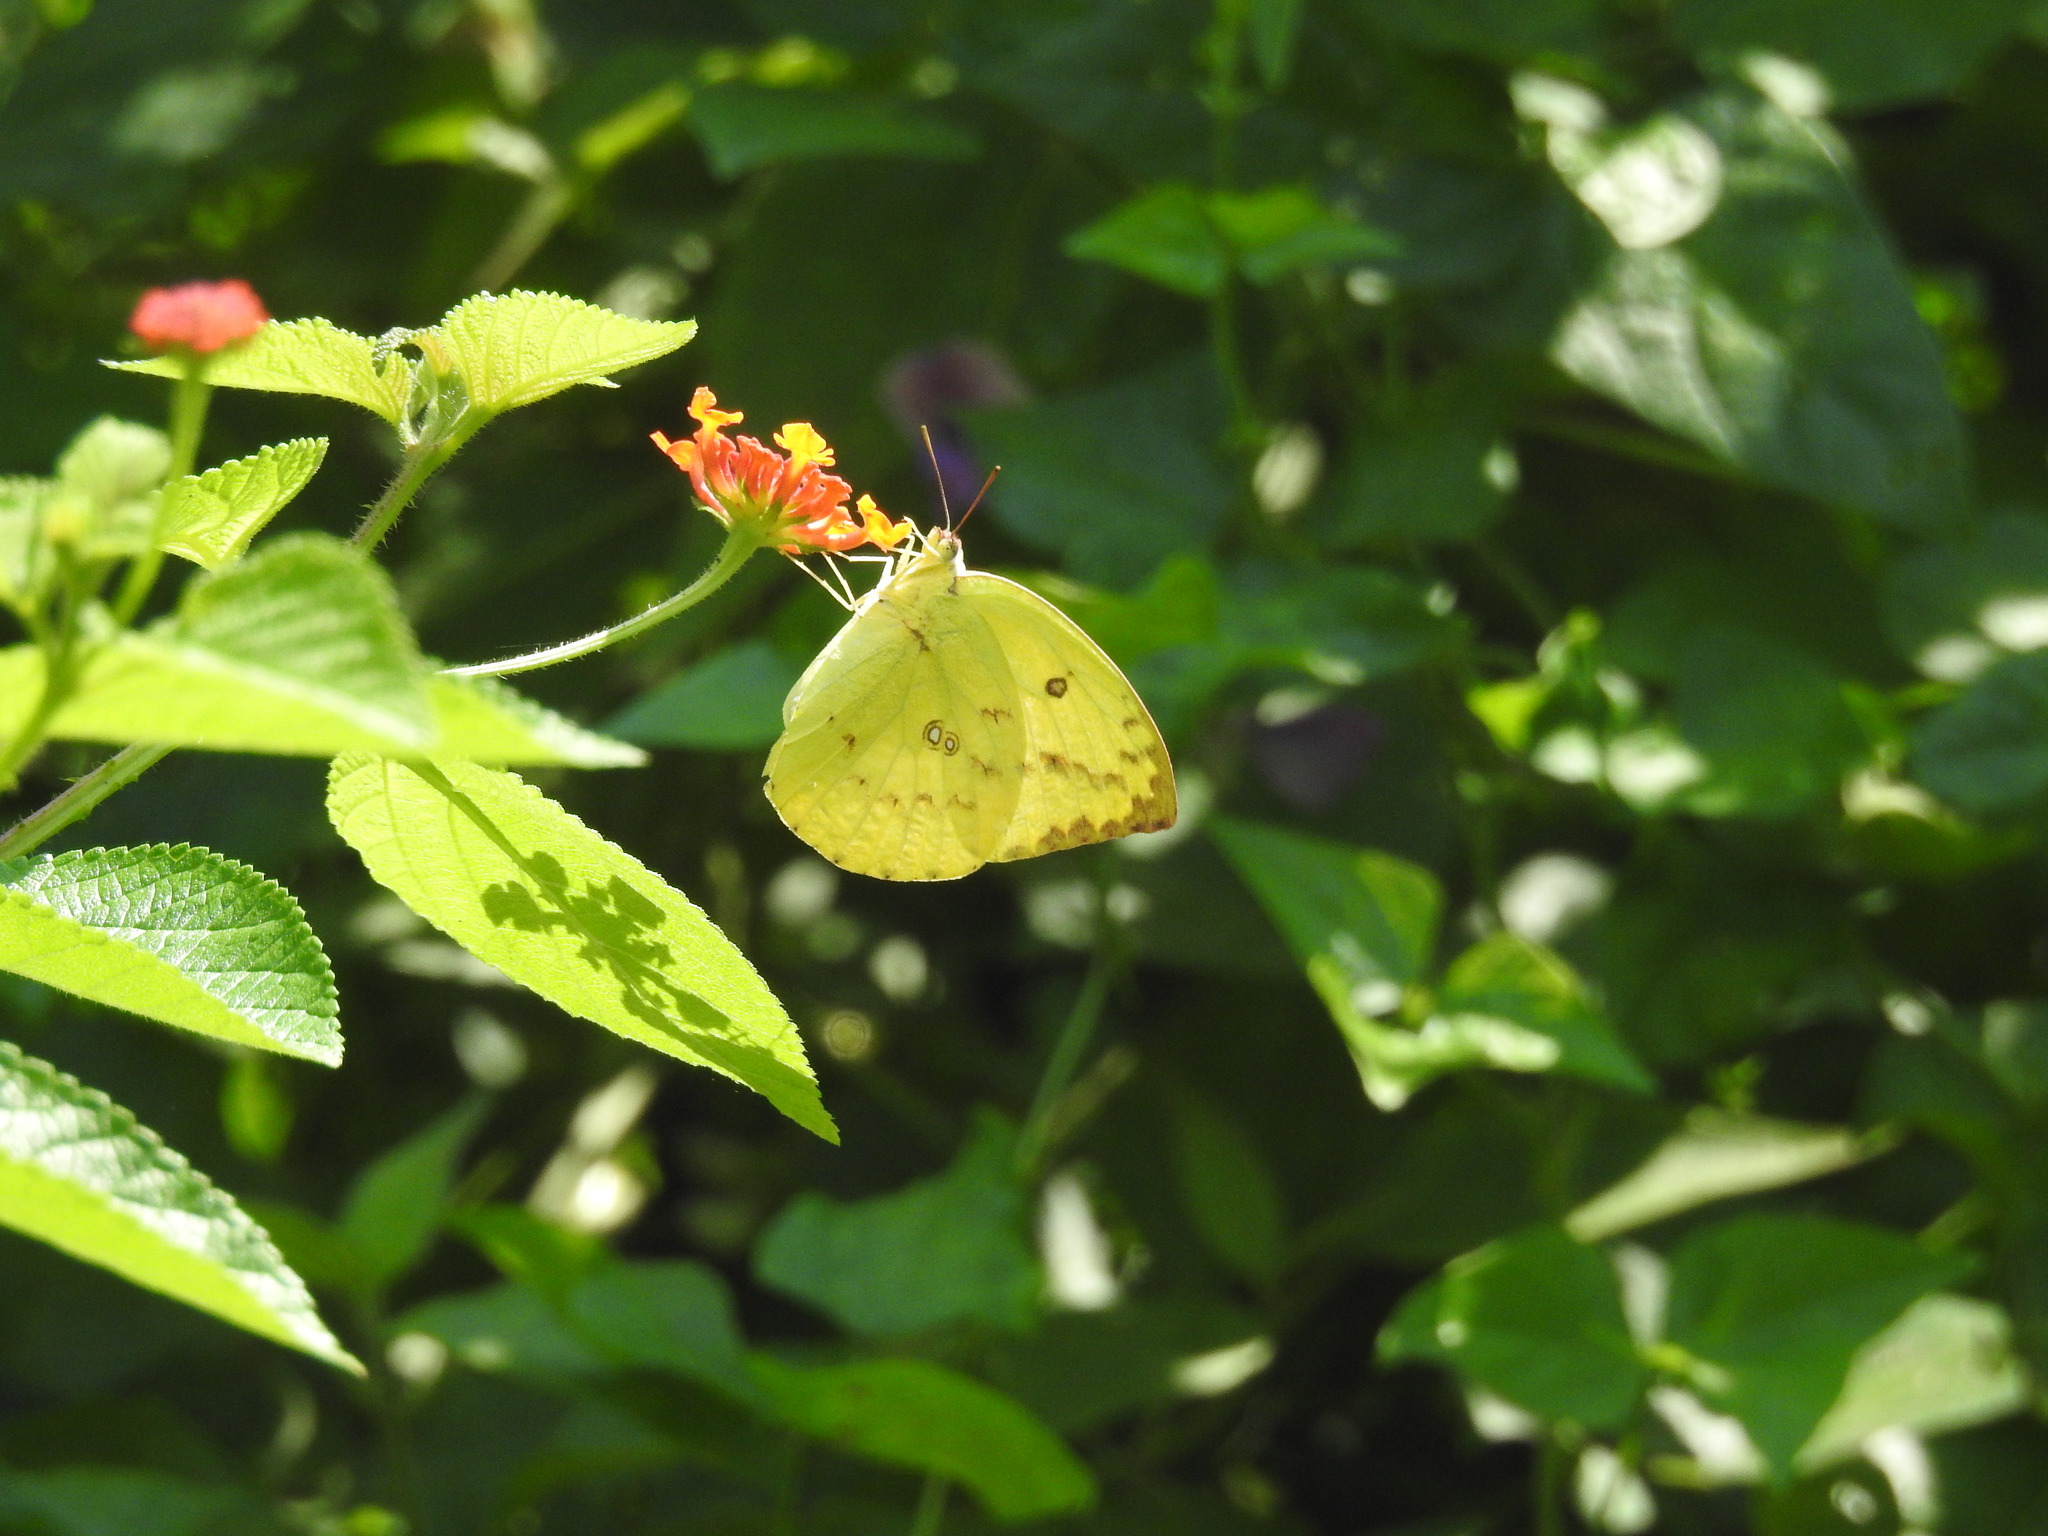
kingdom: Animalia
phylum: Arthropoda
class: Insecta
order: Lepidoptera
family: Pieridae
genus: Catopsilia
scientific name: Catopsilia pomona
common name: Common emigrant
